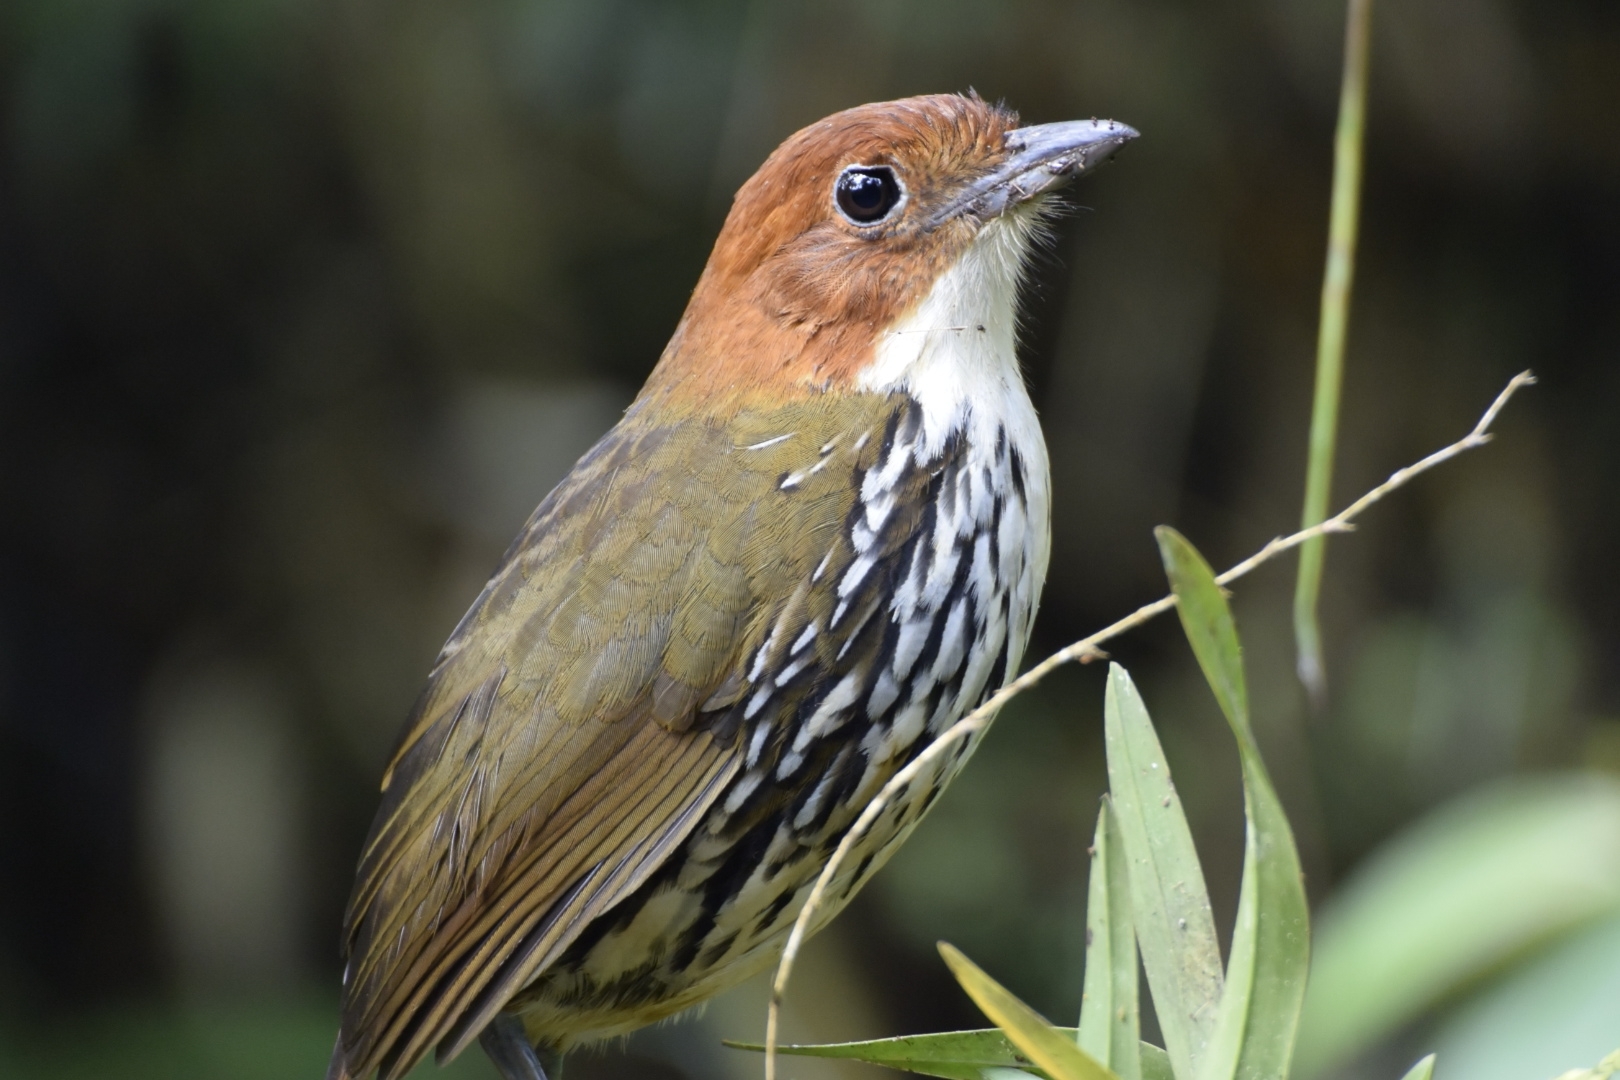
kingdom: Animalia
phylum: Chordata
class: Aves
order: Passeriformes
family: Grallariidae
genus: Grallaria
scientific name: Grallaria ruficapilla
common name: Chestnut-crowned antpitta
